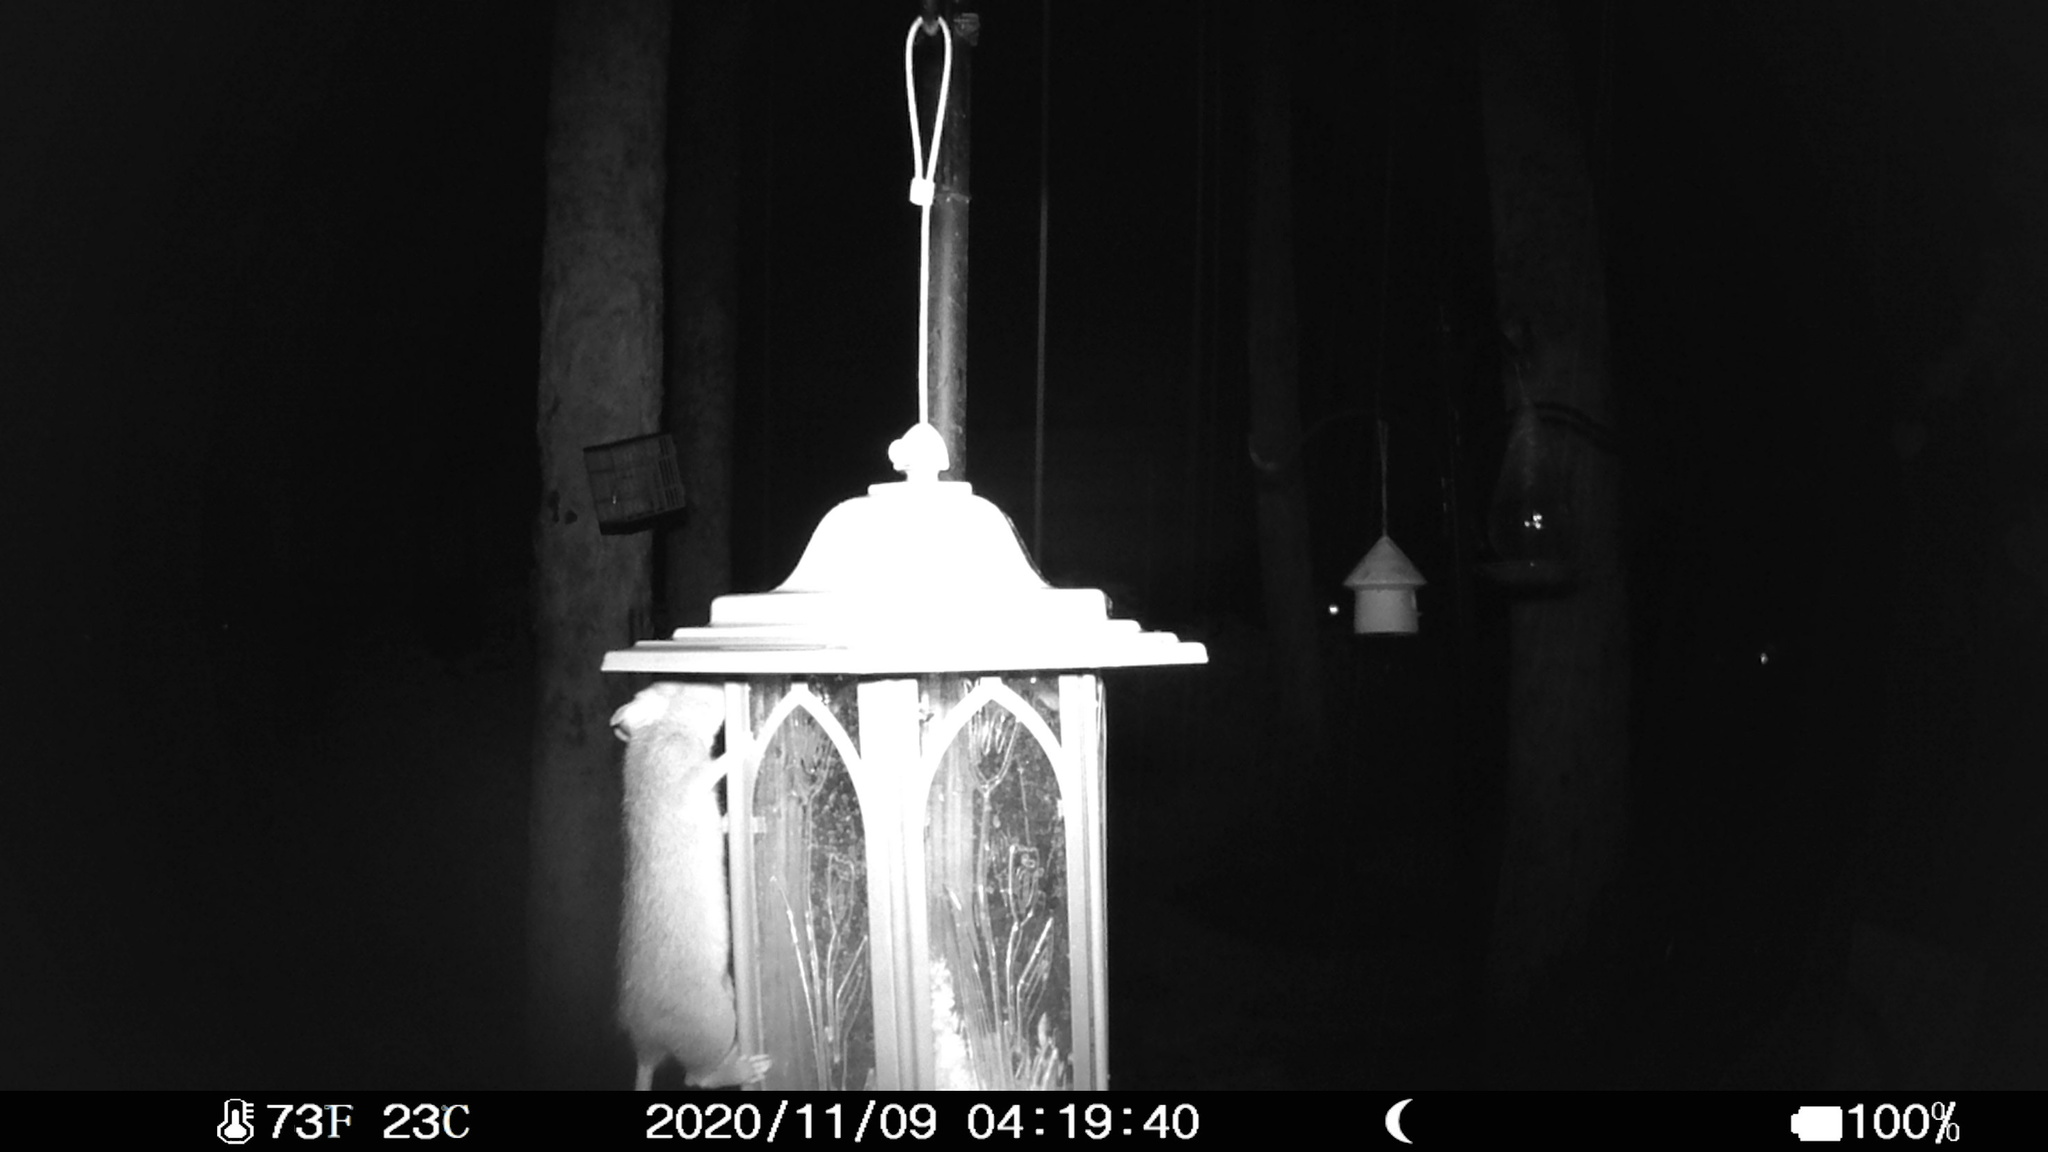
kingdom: Animalia
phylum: Chordata
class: Mammalia
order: Rodentia
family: Muridae
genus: Rattus
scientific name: Rattus rattus
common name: Black rat
